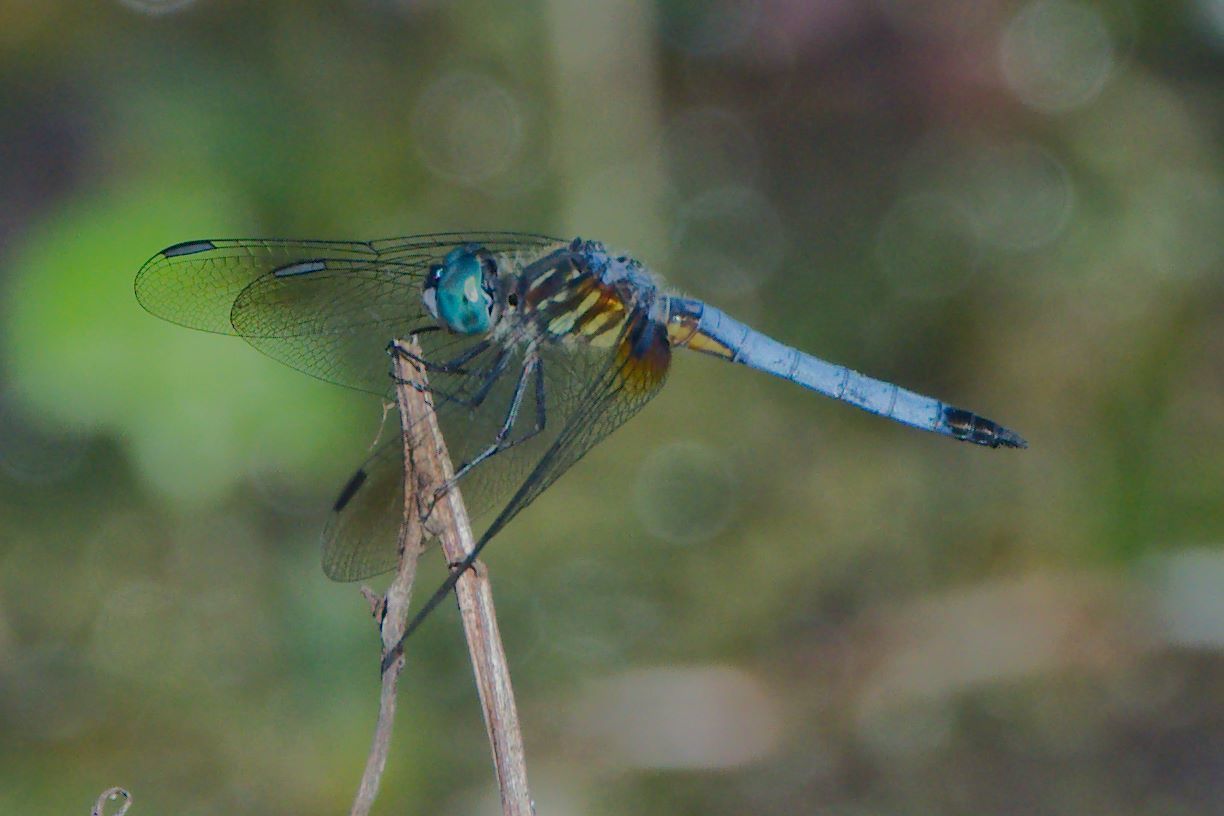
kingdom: Animalia
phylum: Arthropoda
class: Insecta
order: Odonata
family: Libellulidae
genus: Pachydiplax
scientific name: Pachydiplax longipennis
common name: Blue dasher
